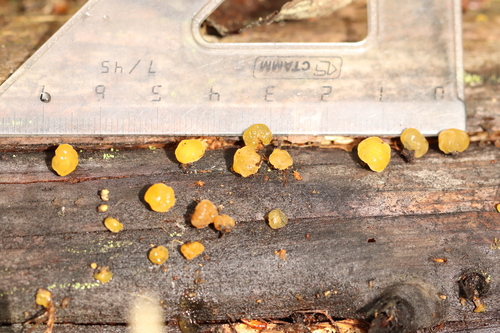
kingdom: Fungi
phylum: Basidiomycota
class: Dacrymycetes
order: Dacrymycetales
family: Dacrymycetaceae
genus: Ditiola
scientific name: Ditiola radicata
